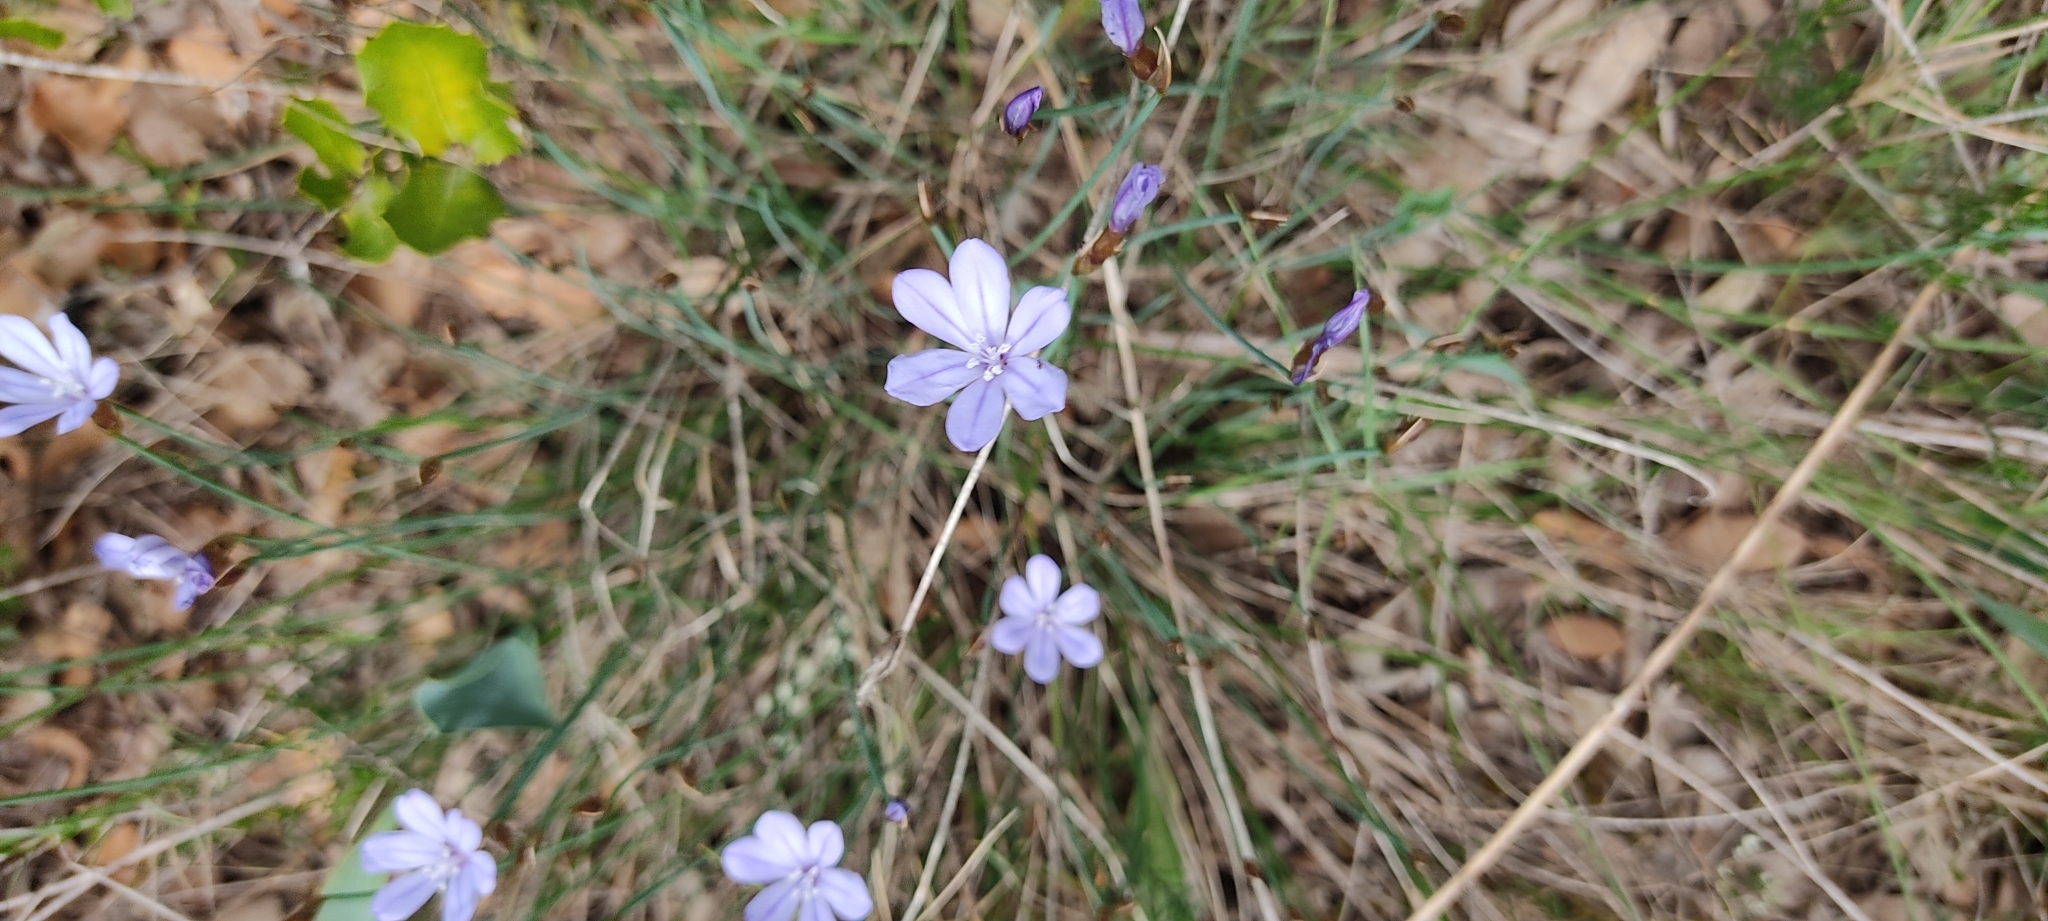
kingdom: Plantae
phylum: Tracheophyta
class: Liliopsida
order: Asparagales
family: Asparagaceae
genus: Aphyllanthes
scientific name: Aphyllanthes monspeliensis
